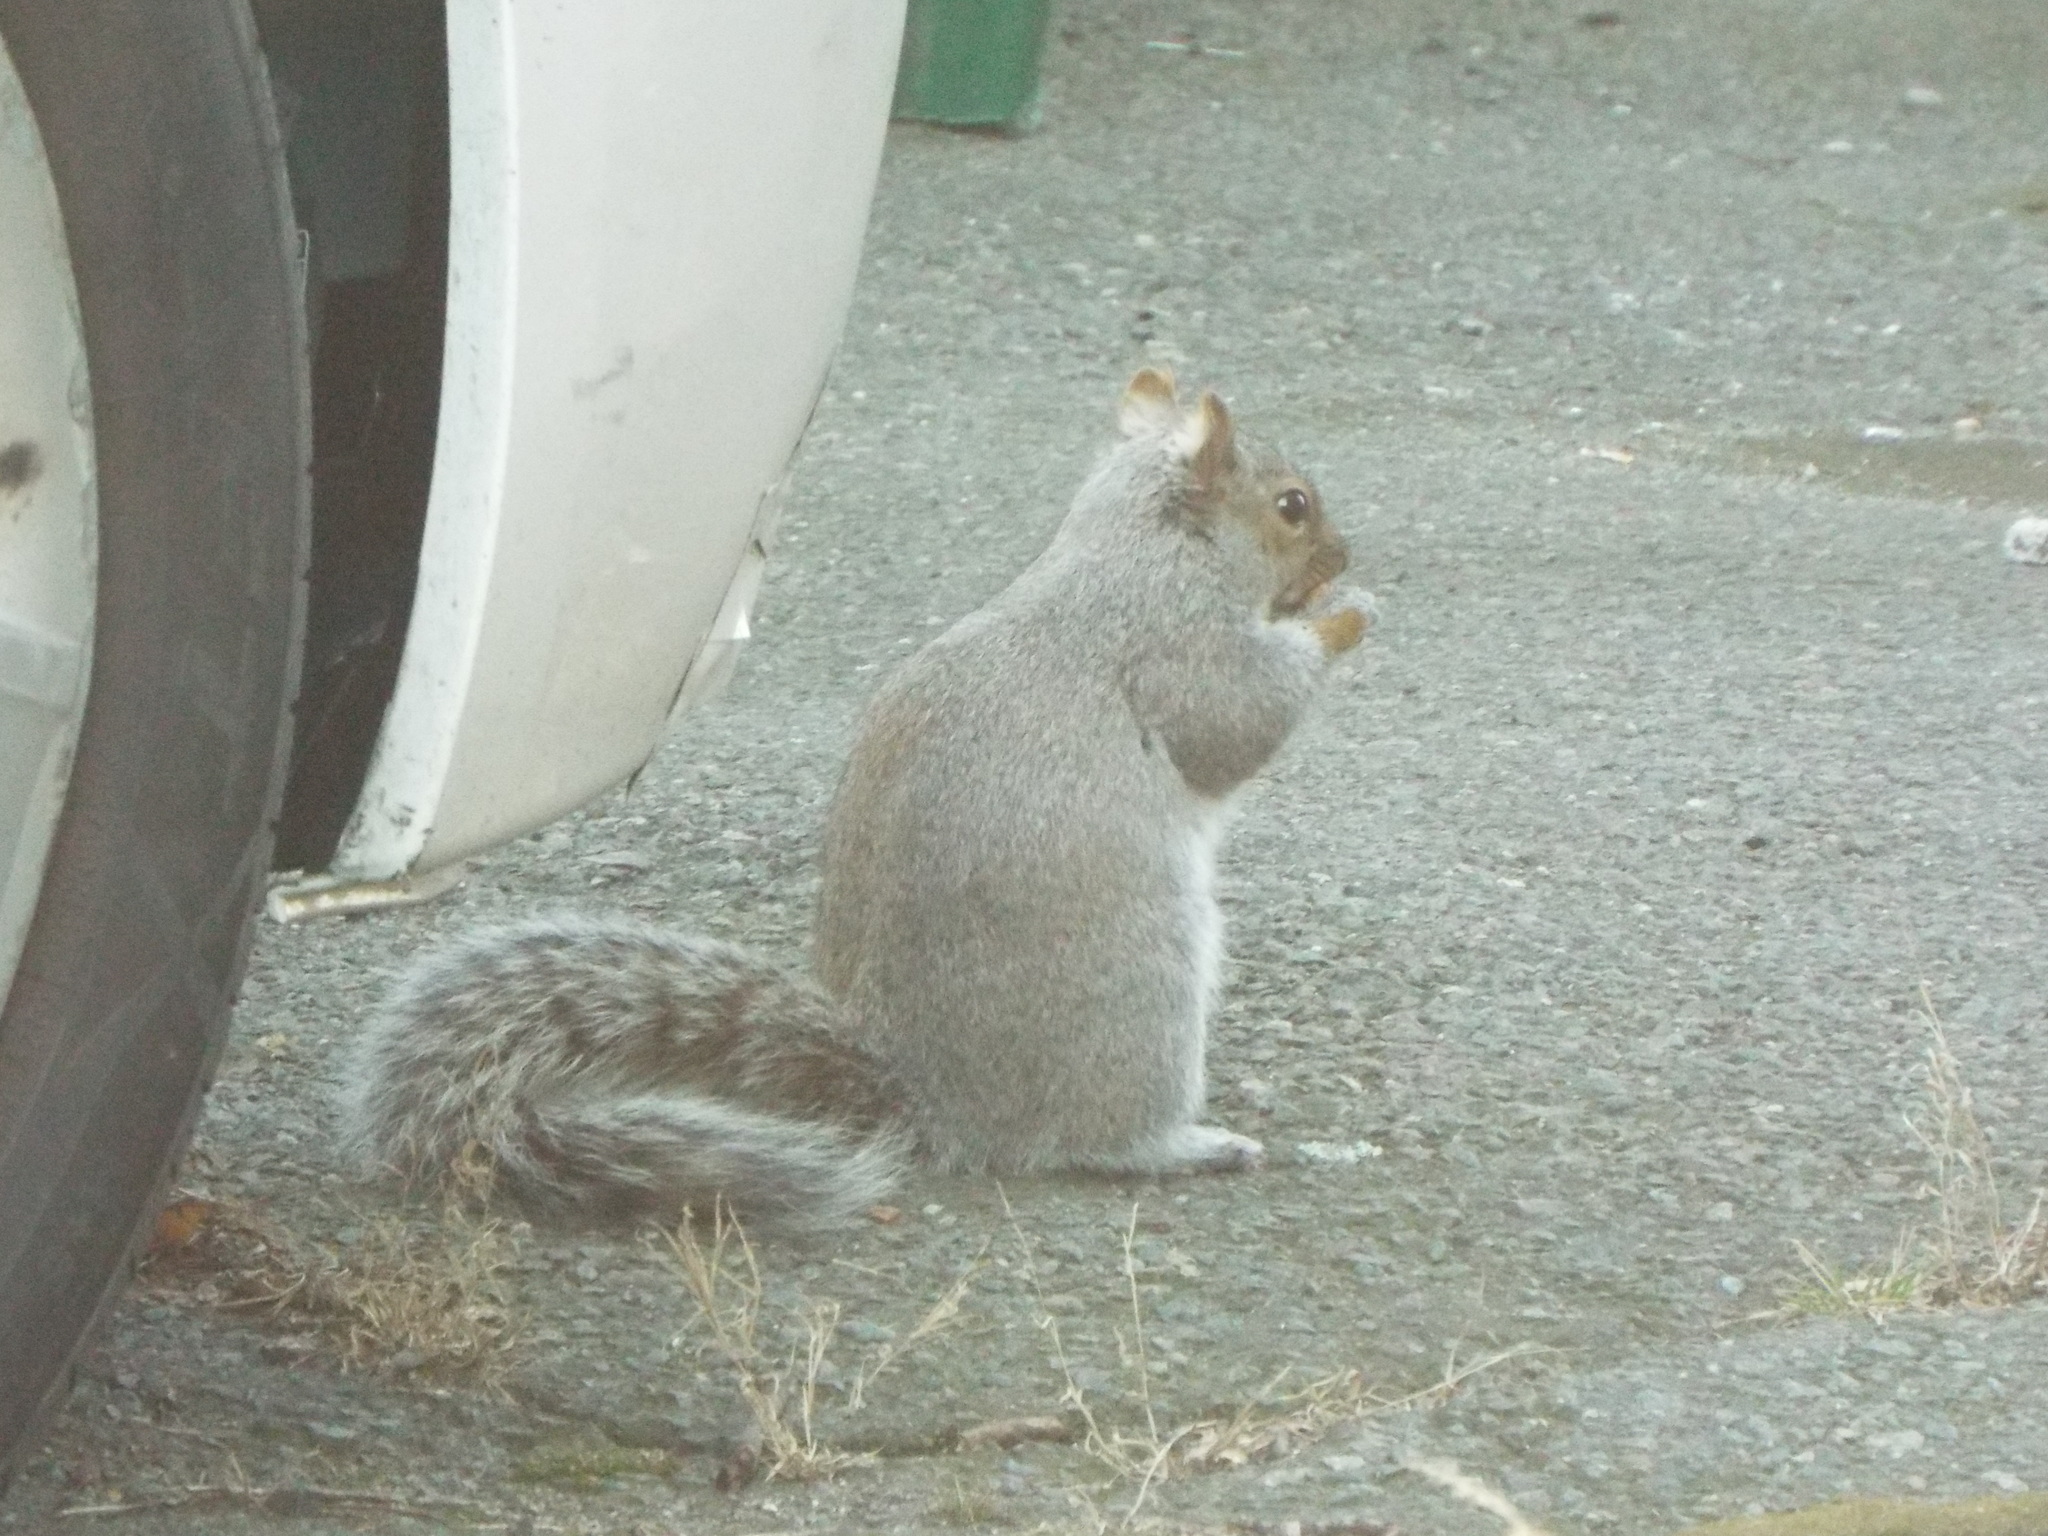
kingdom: Animalia
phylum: Chordata
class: Mammalia
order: Rodentia
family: Sciuridae
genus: Sciurus
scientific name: Sciurus carolinensis
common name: Eastern gray squirrel
